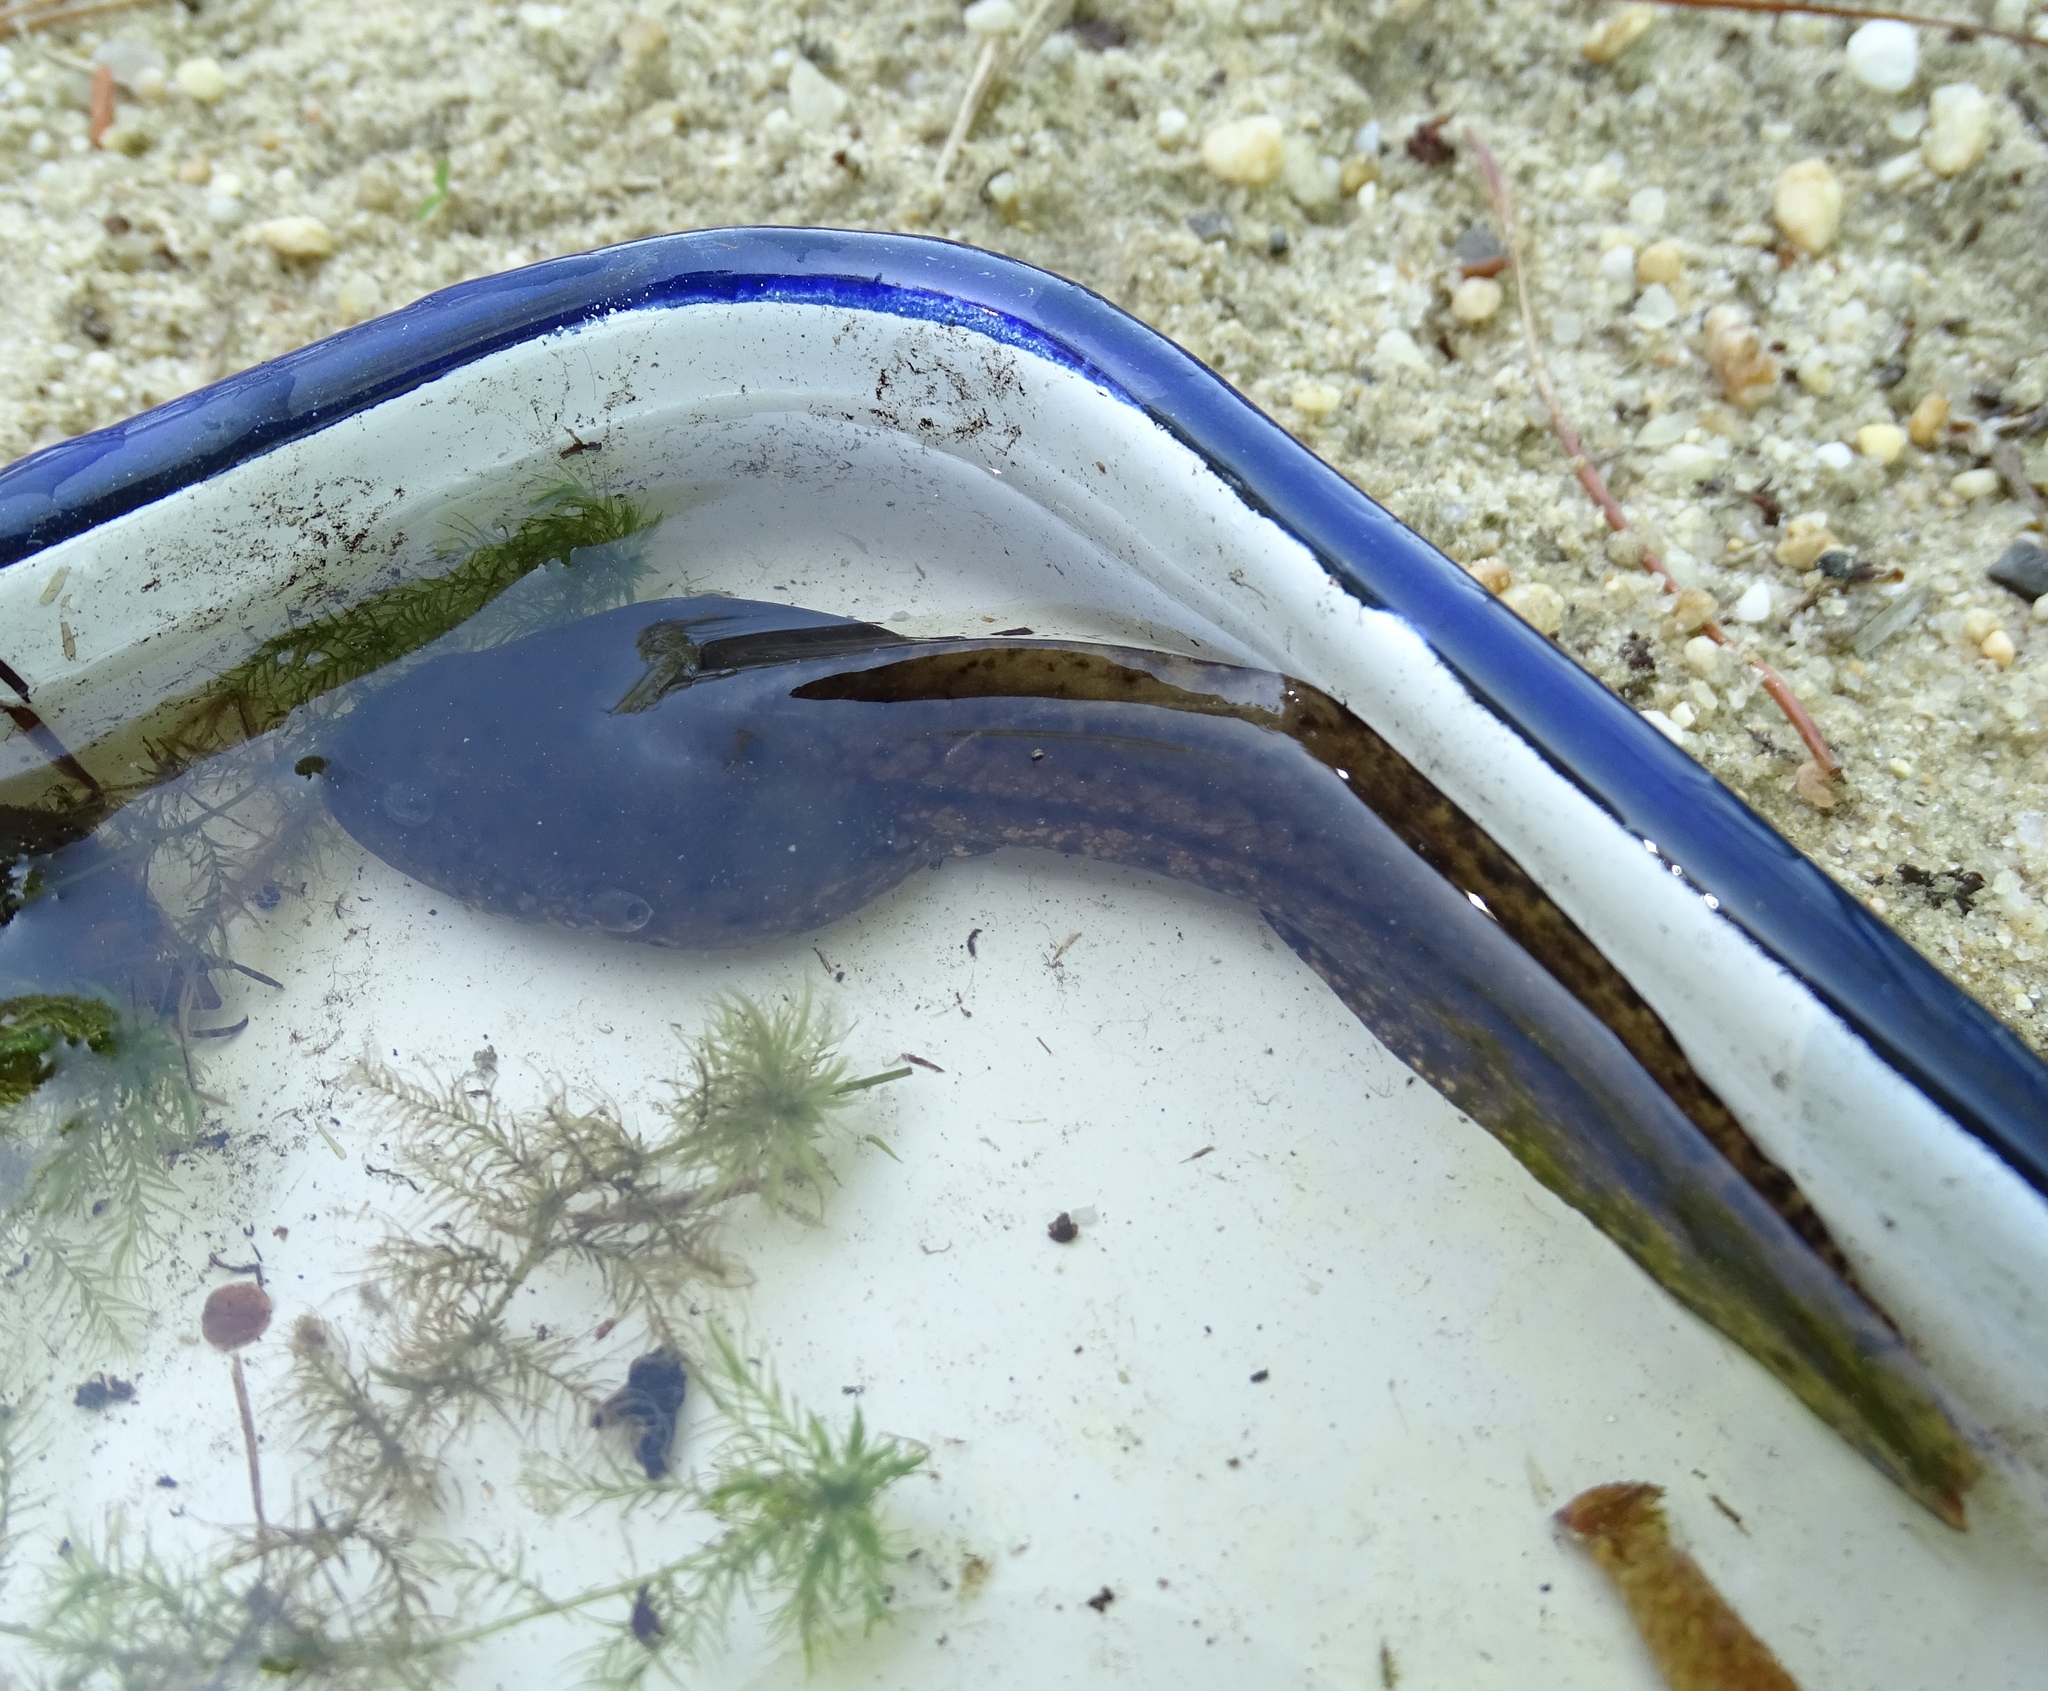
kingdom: Animalia
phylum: Chordata
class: Amphibia
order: Anura
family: Ranidae
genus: Lithobates
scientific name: Lithobates catesbeianus
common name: American bullfrog
